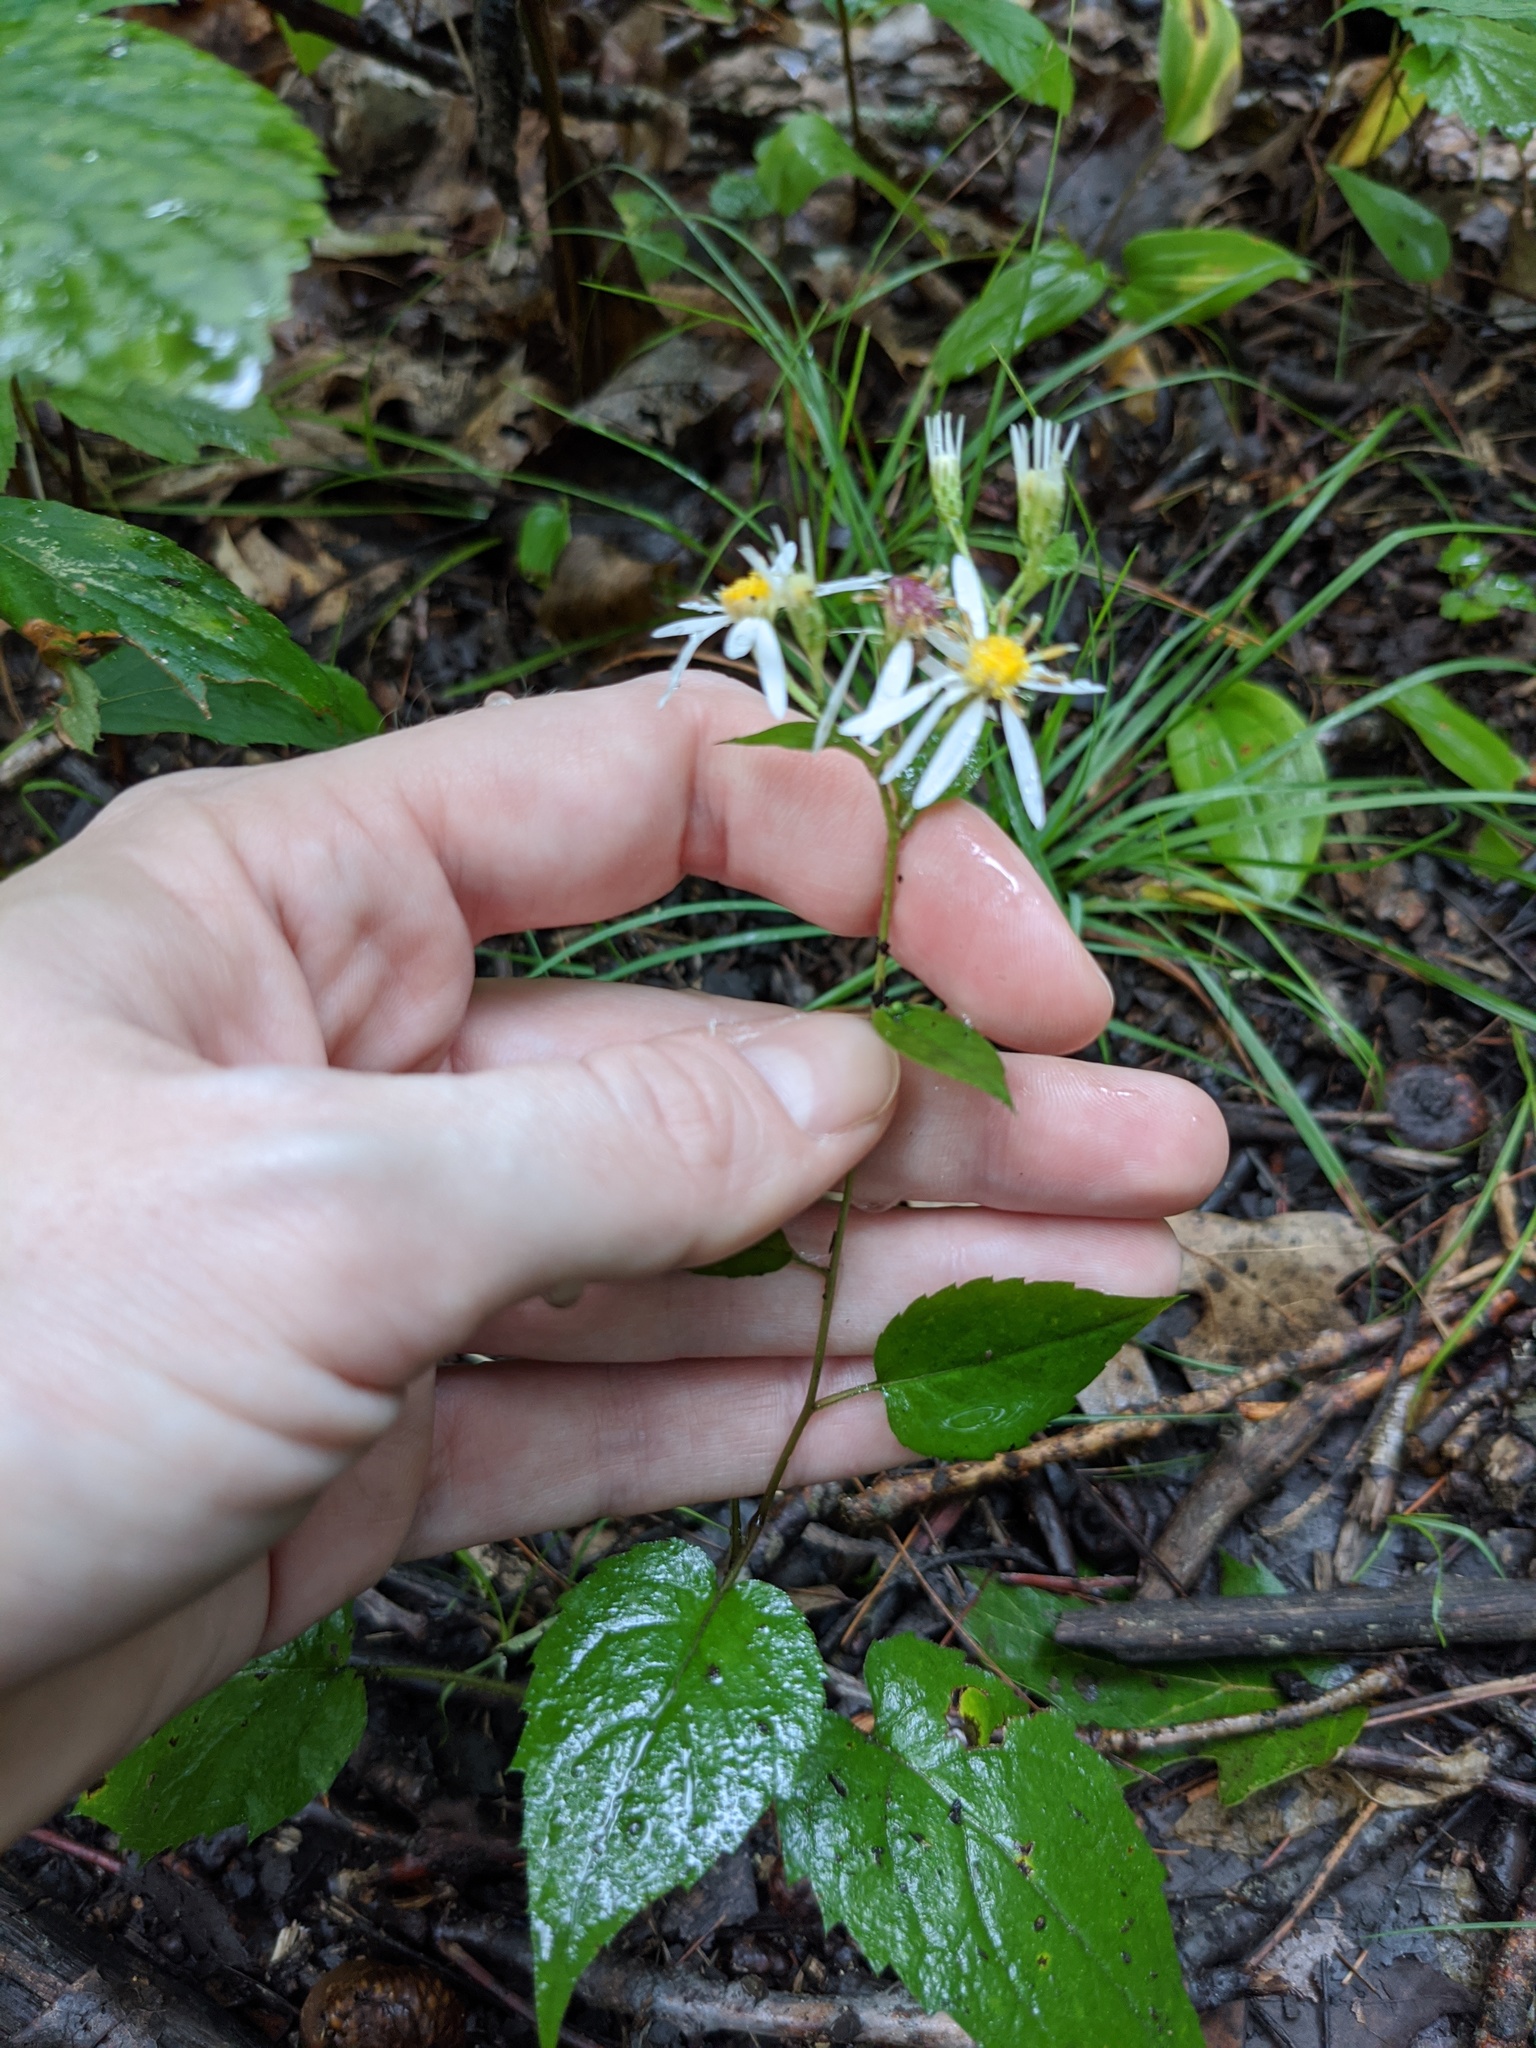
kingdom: Plantae
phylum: Tracheophyta
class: Magnoliopsida
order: Asterales
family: Asteraceae
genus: Eurybia
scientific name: Eurybia divaricata
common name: White wood aster
